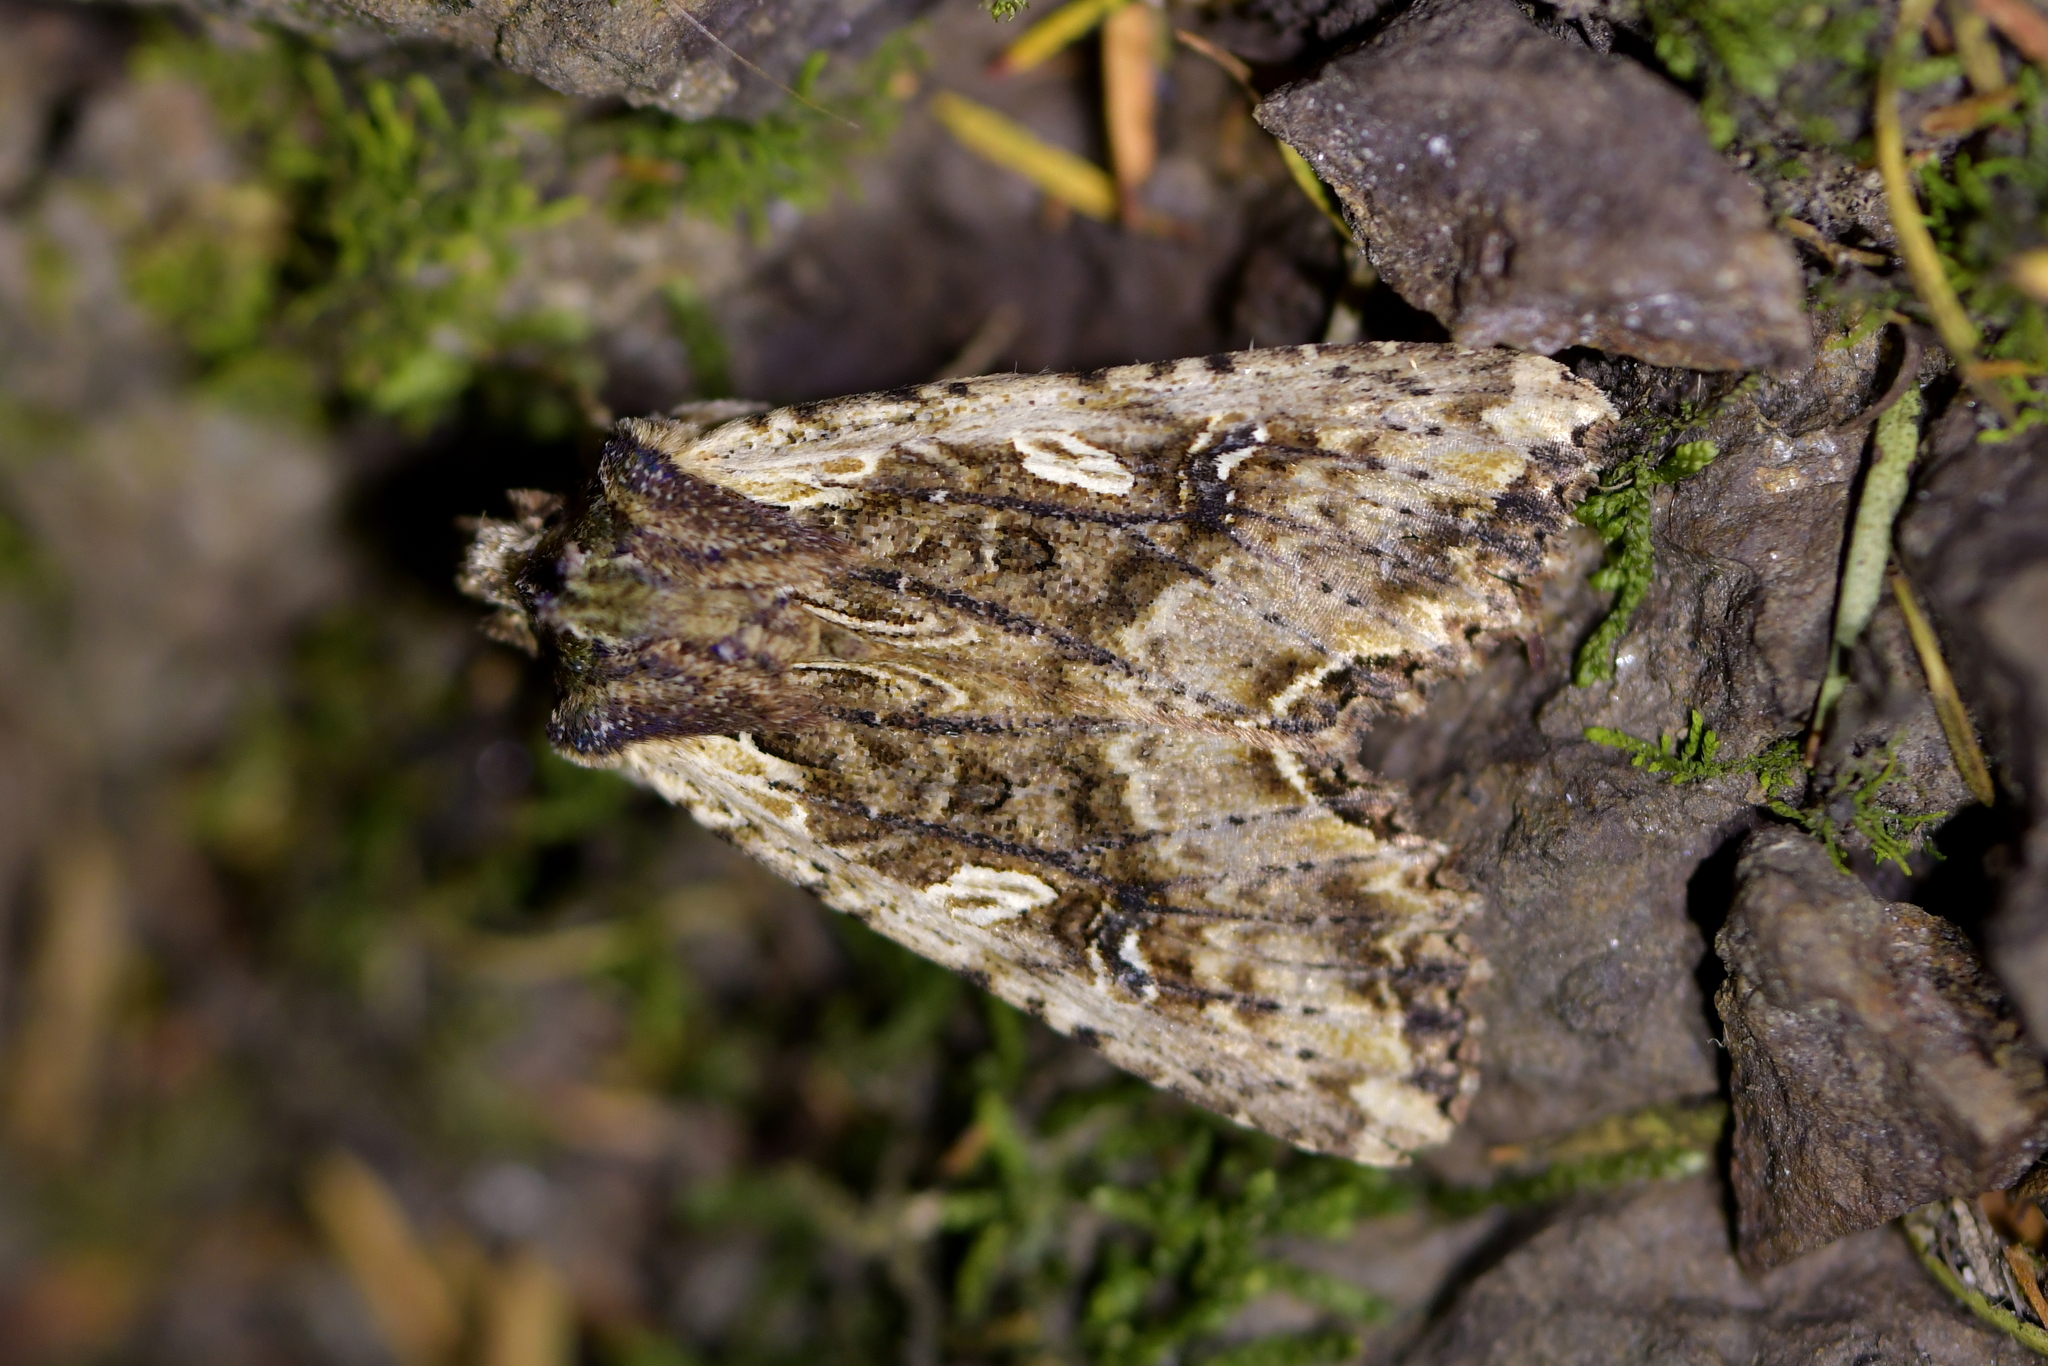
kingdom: Animalia
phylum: Arthropoda
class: Insecta
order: Lepidoptera
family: Noctuidae
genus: Meterana
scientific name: Meterana stipata
